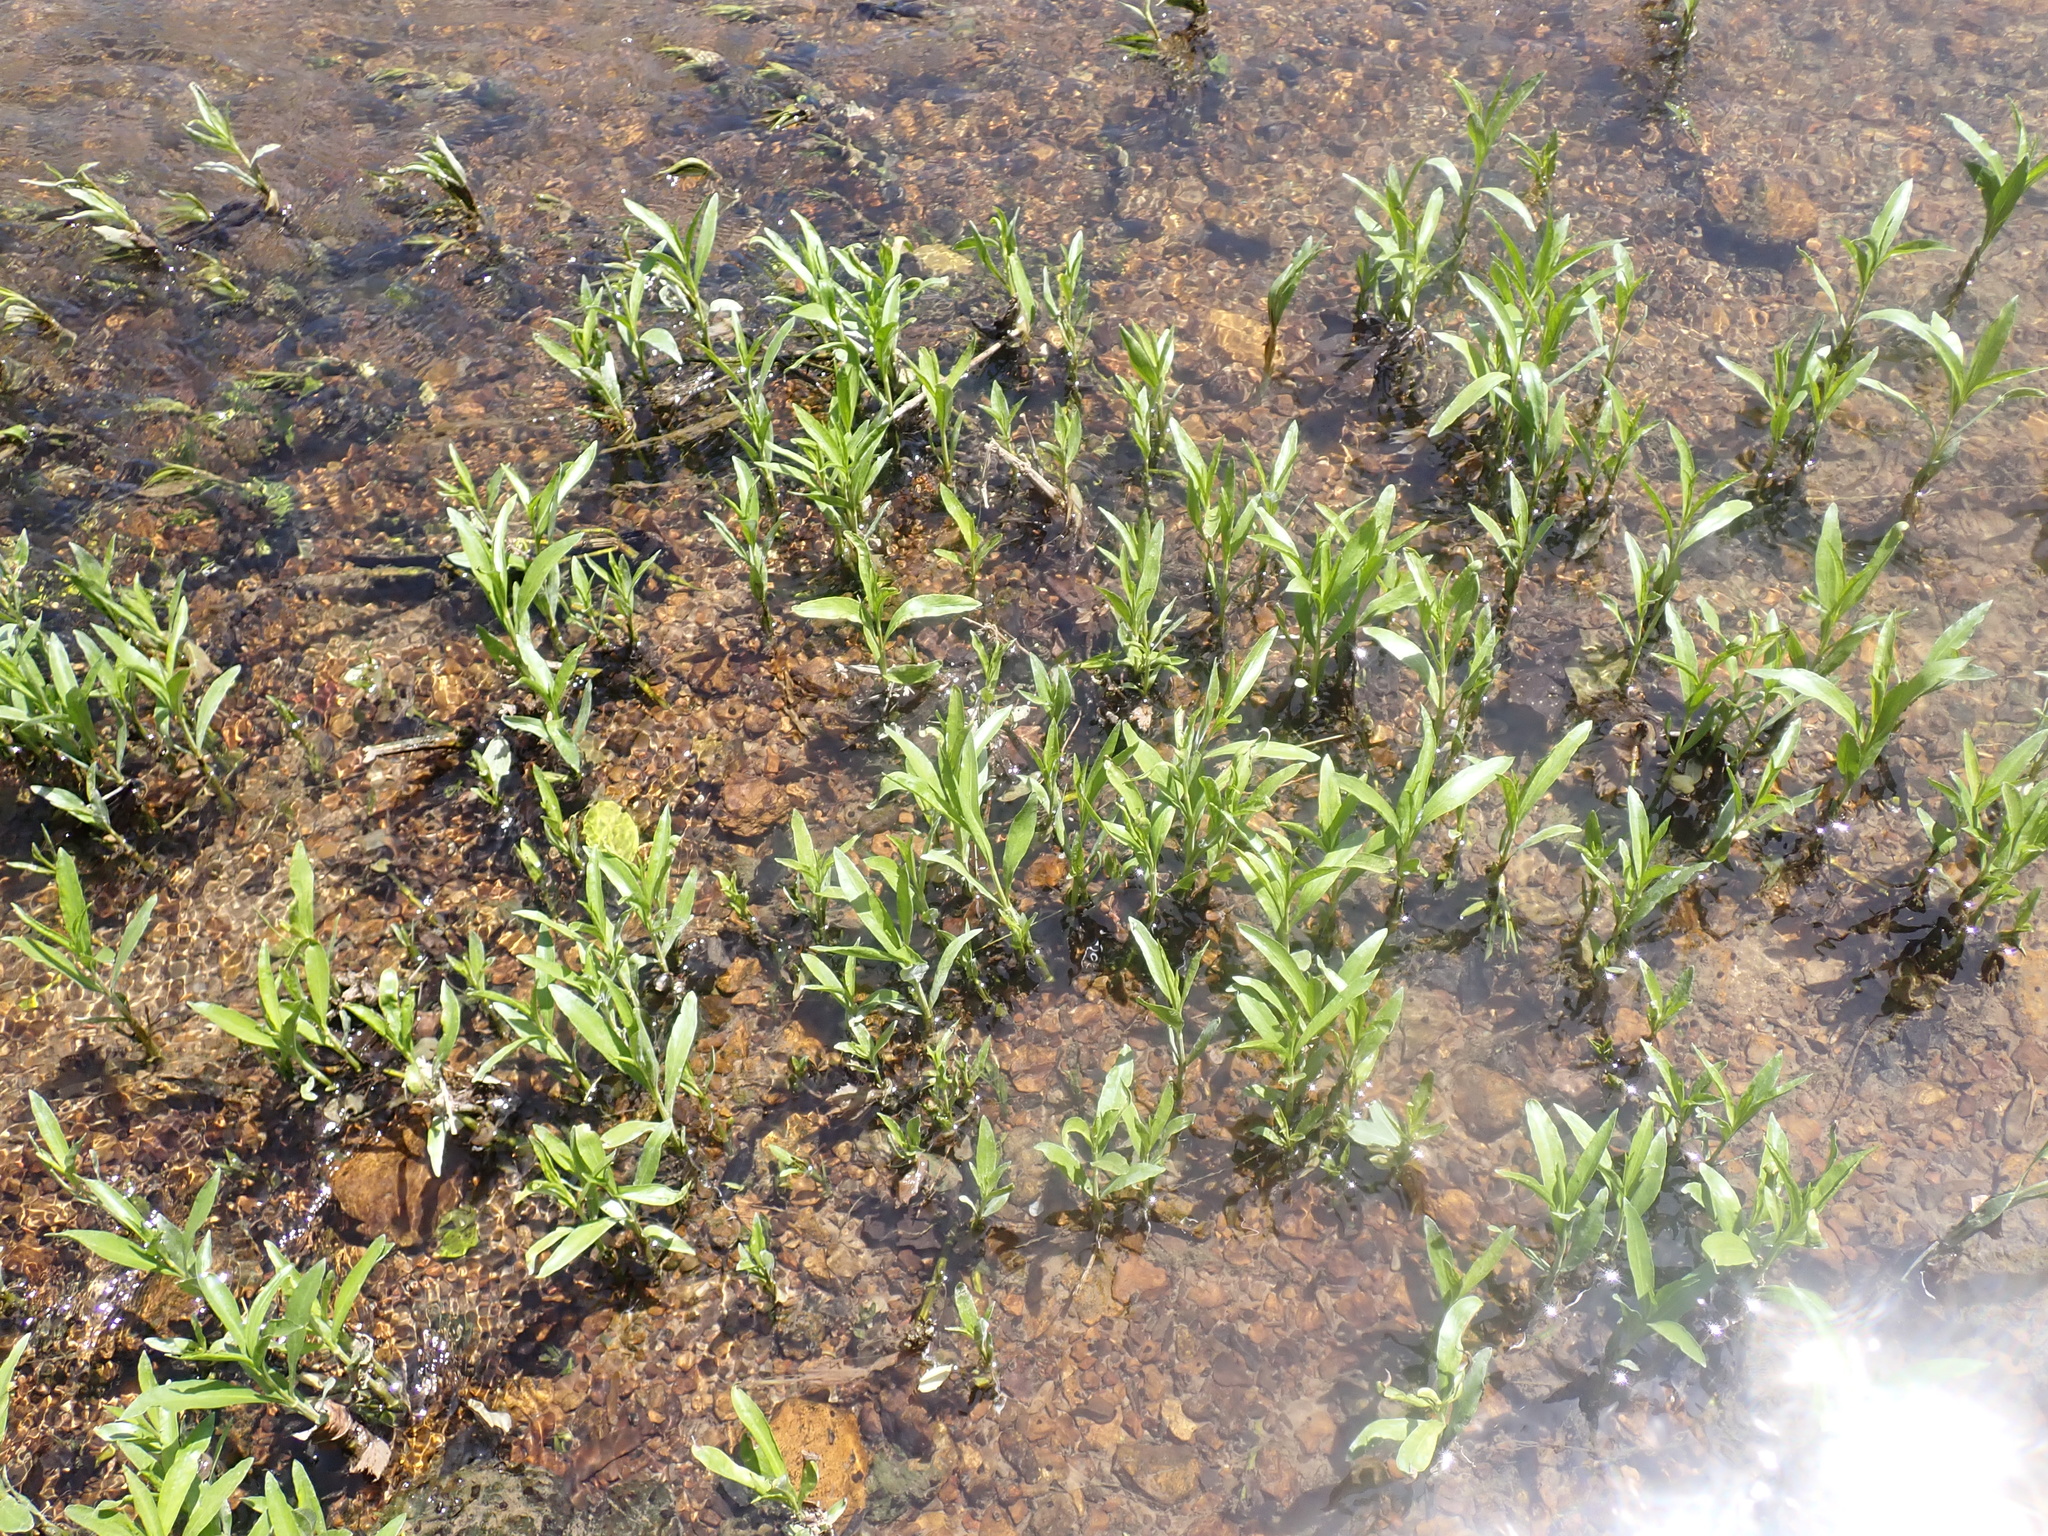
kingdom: Plantae
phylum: Tracheophyta
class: Magnoliopsida
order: Lamiales
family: Acanthaceae
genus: Dianthera
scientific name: Dianthera americana
